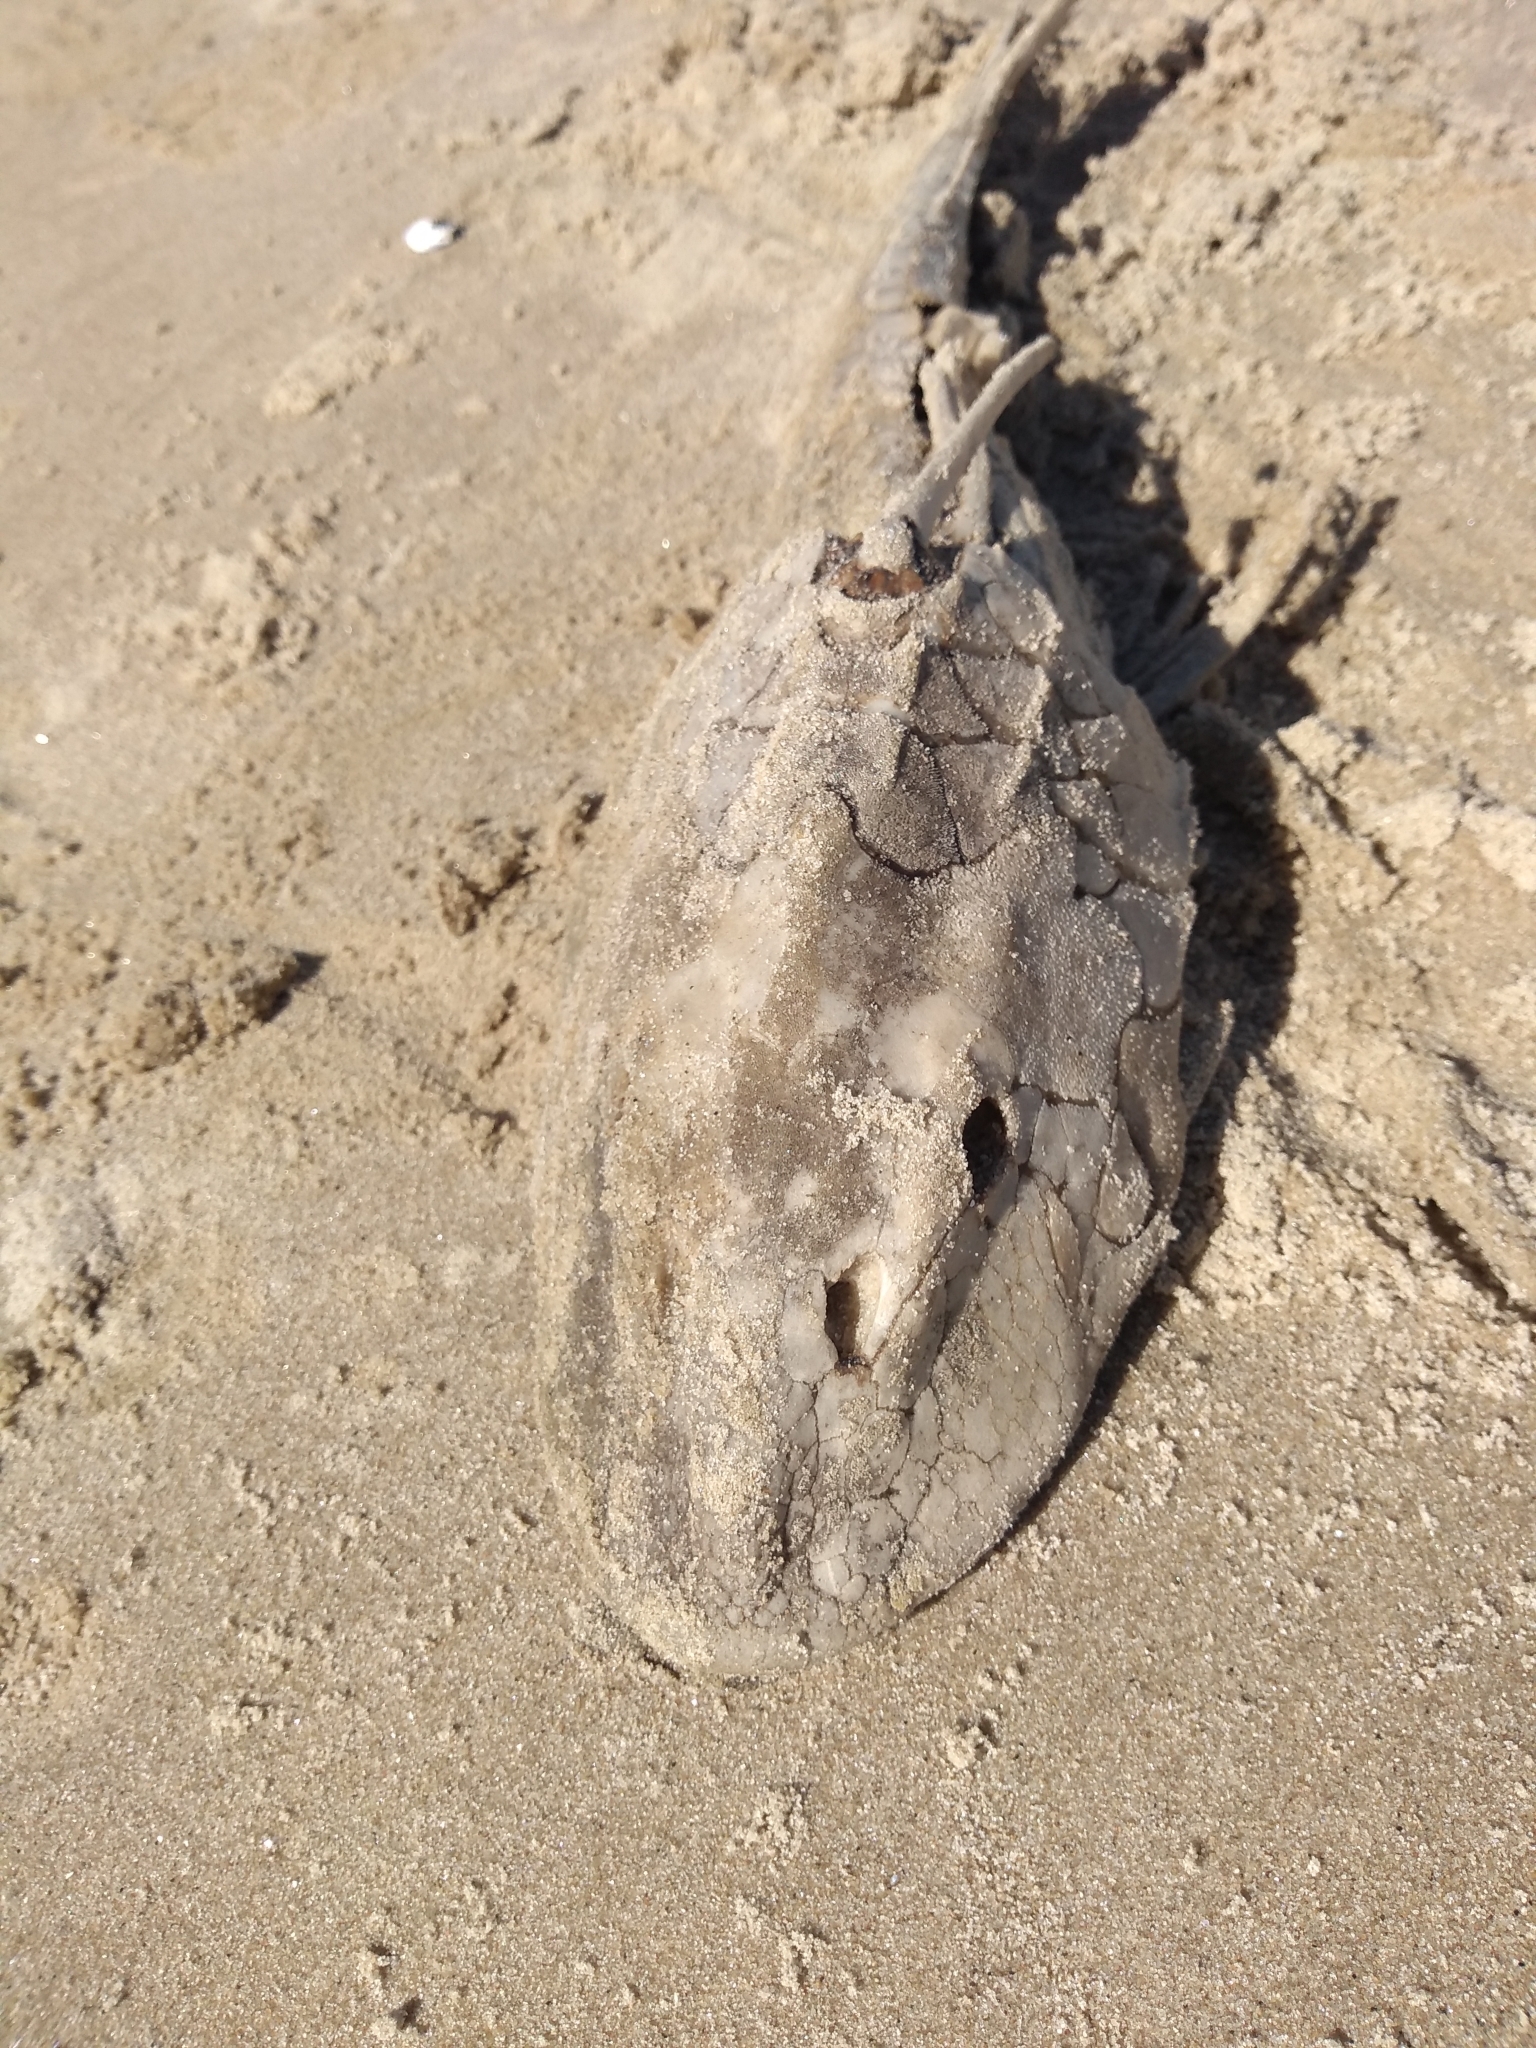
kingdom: Animalia
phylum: Chordata
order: Siluriformes
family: Loricariidae
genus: Hypostomus
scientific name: Hypostomus commersoni
